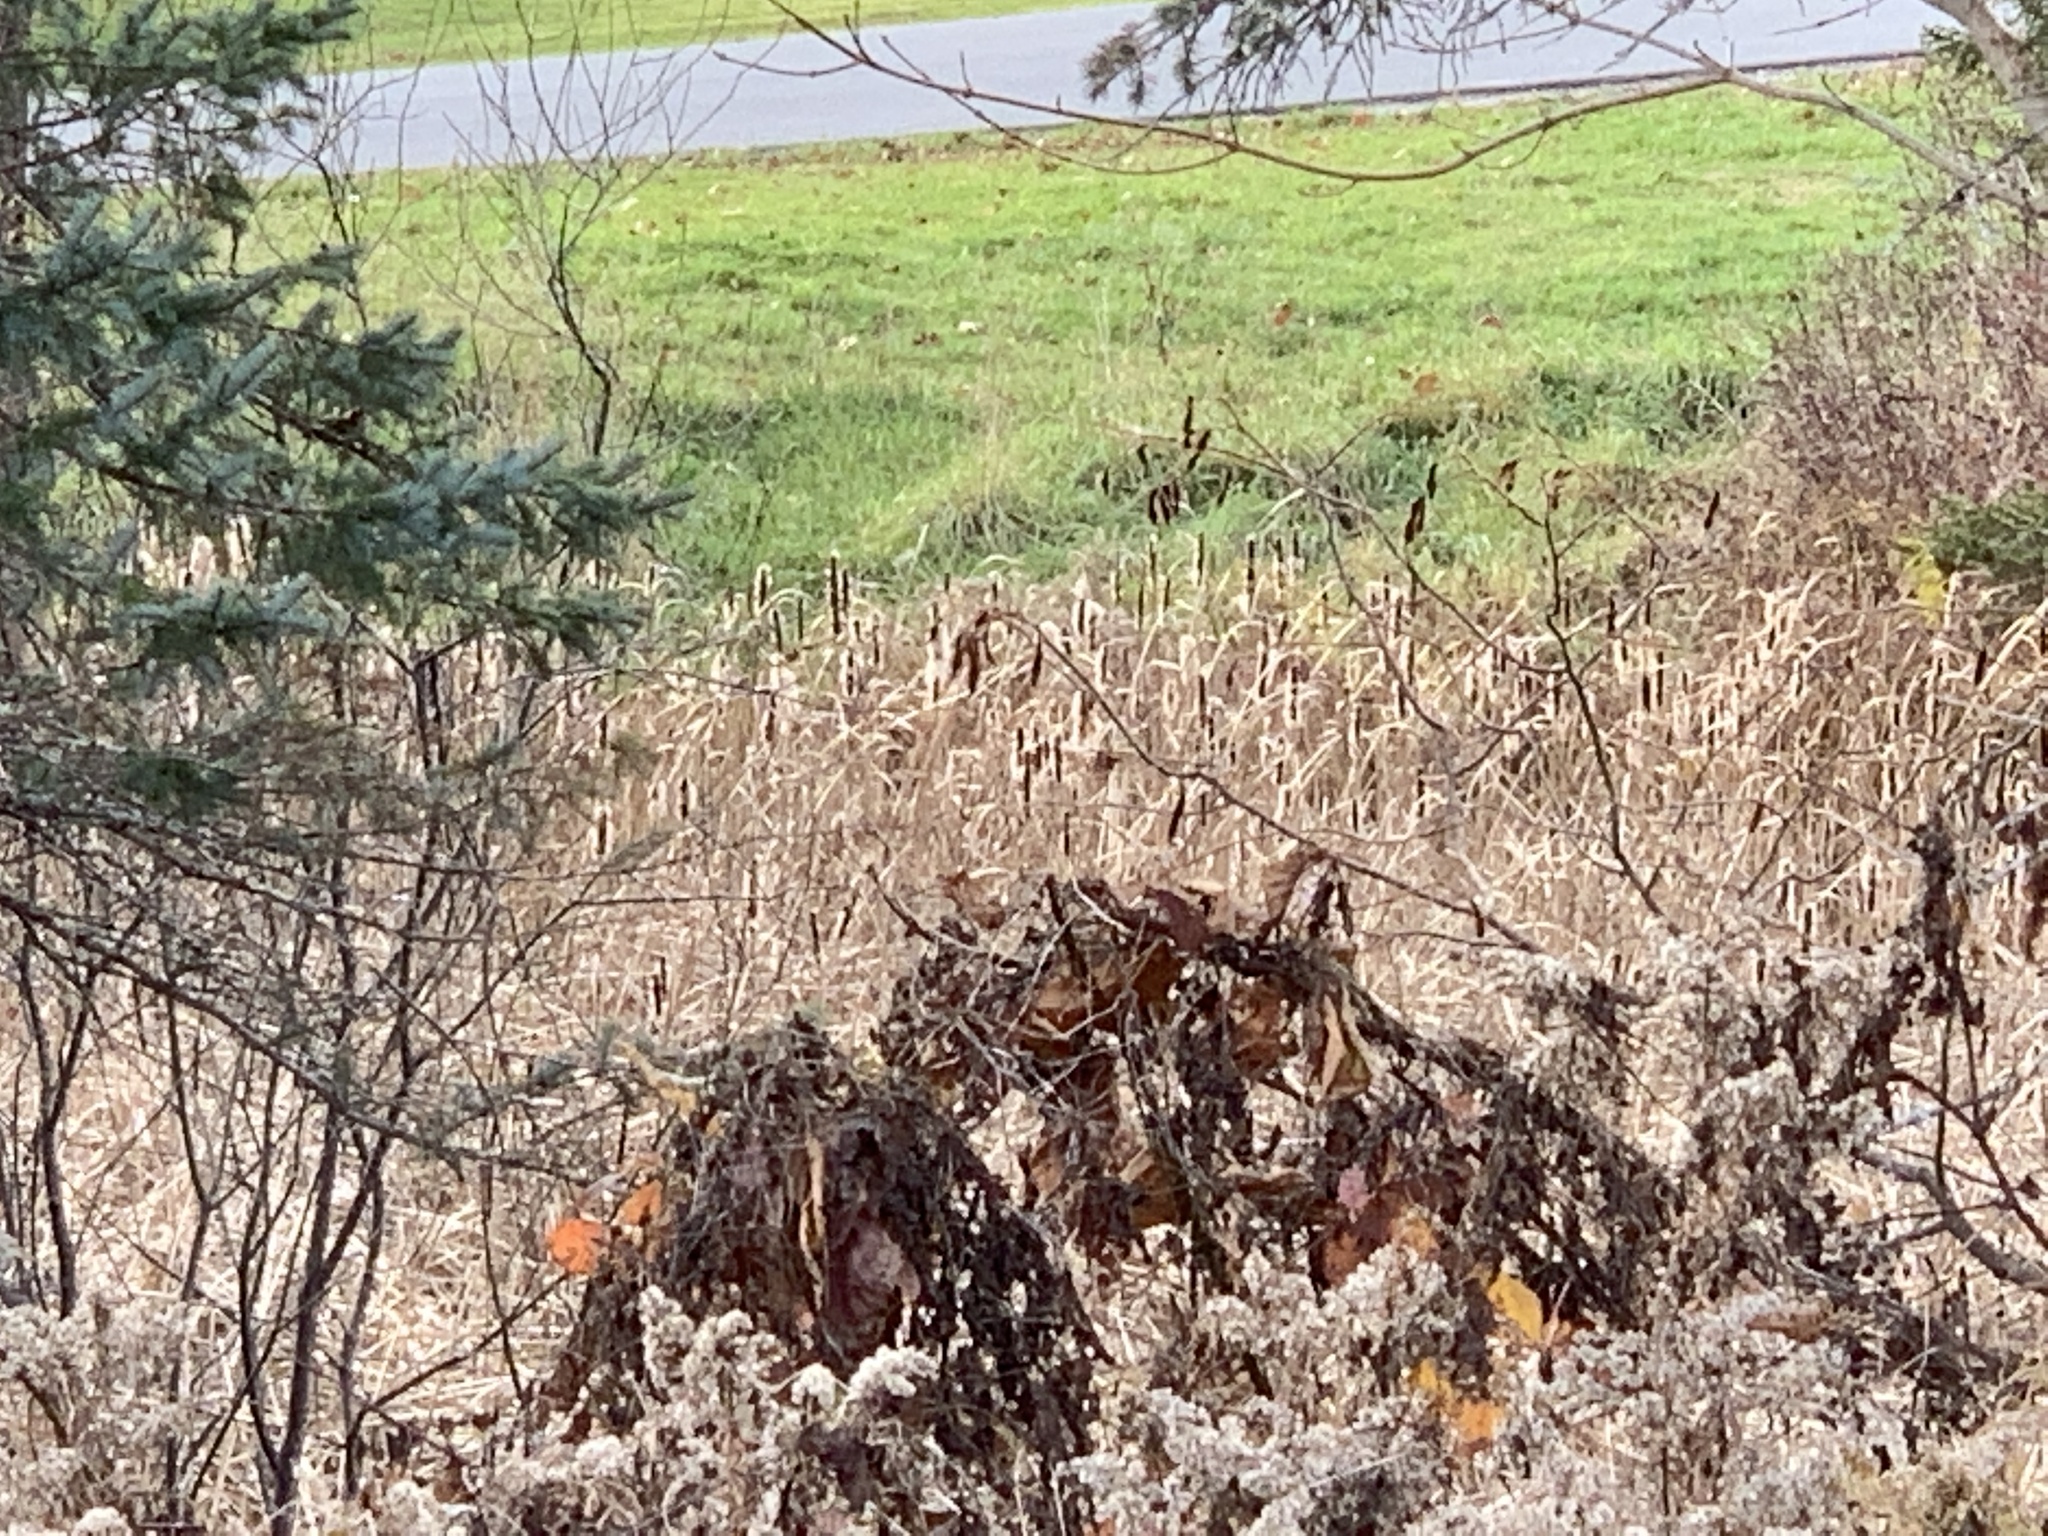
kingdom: Plantae
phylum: Tracheophyta
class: Liliopsida
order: Poales
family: Typhaceae
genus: Typha
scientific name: Typha
